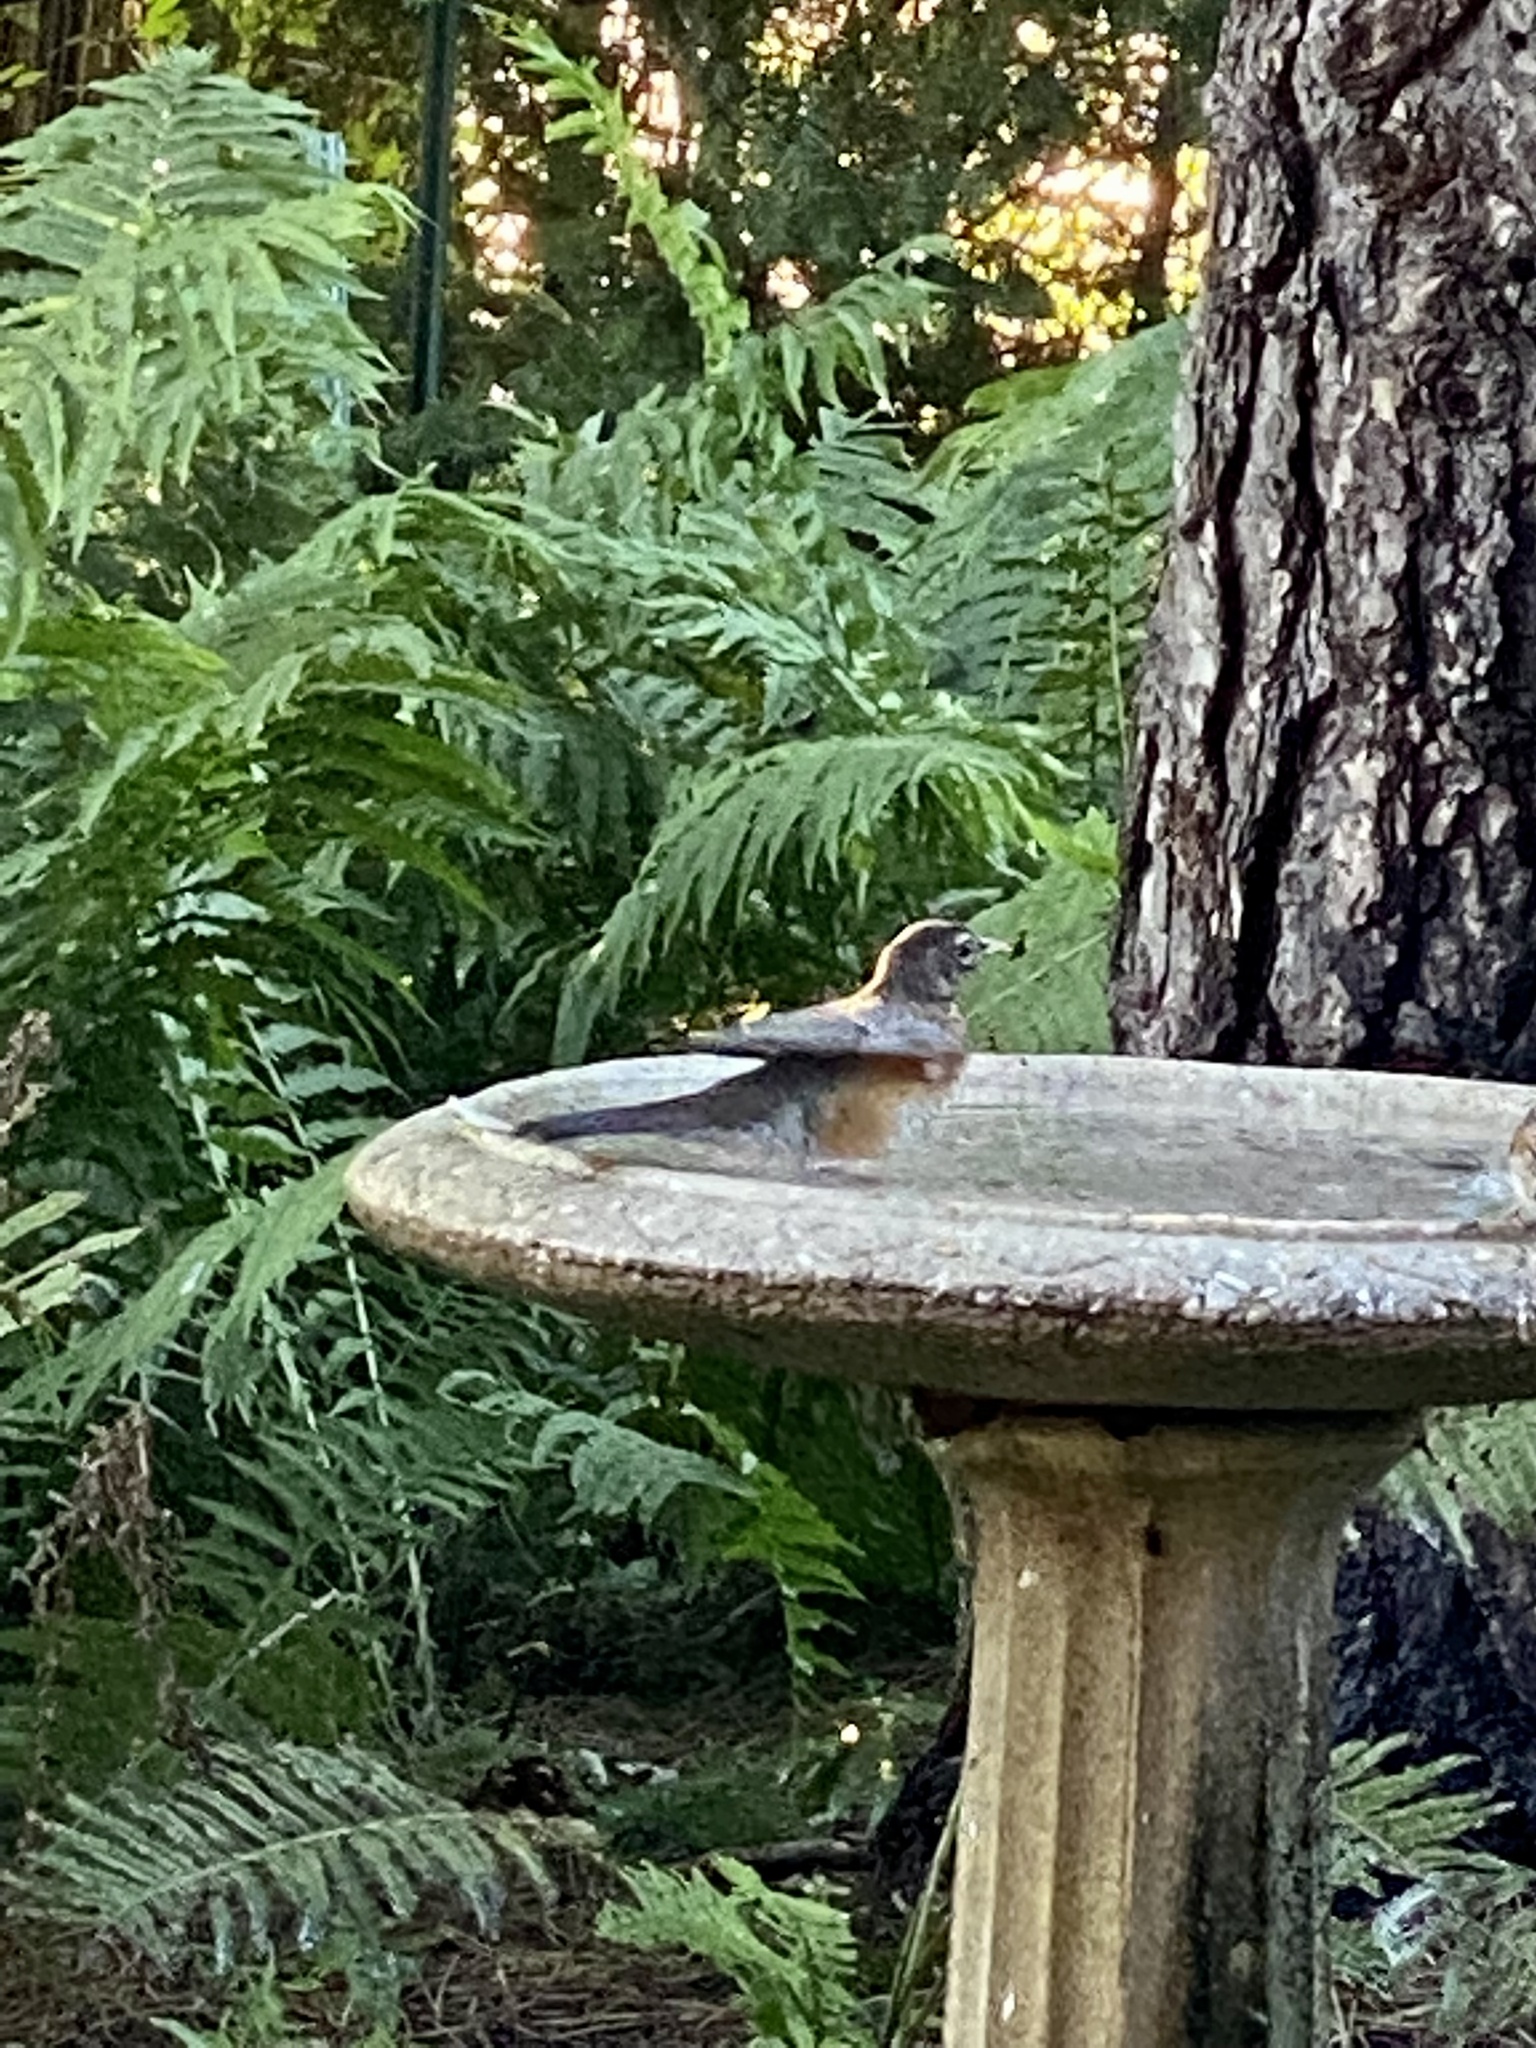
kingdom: Animalia
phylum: Chordata
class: Aves
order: Passeriformes
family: Turdidae
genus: Turdus
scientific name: Turdus migratorius
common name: American robin
